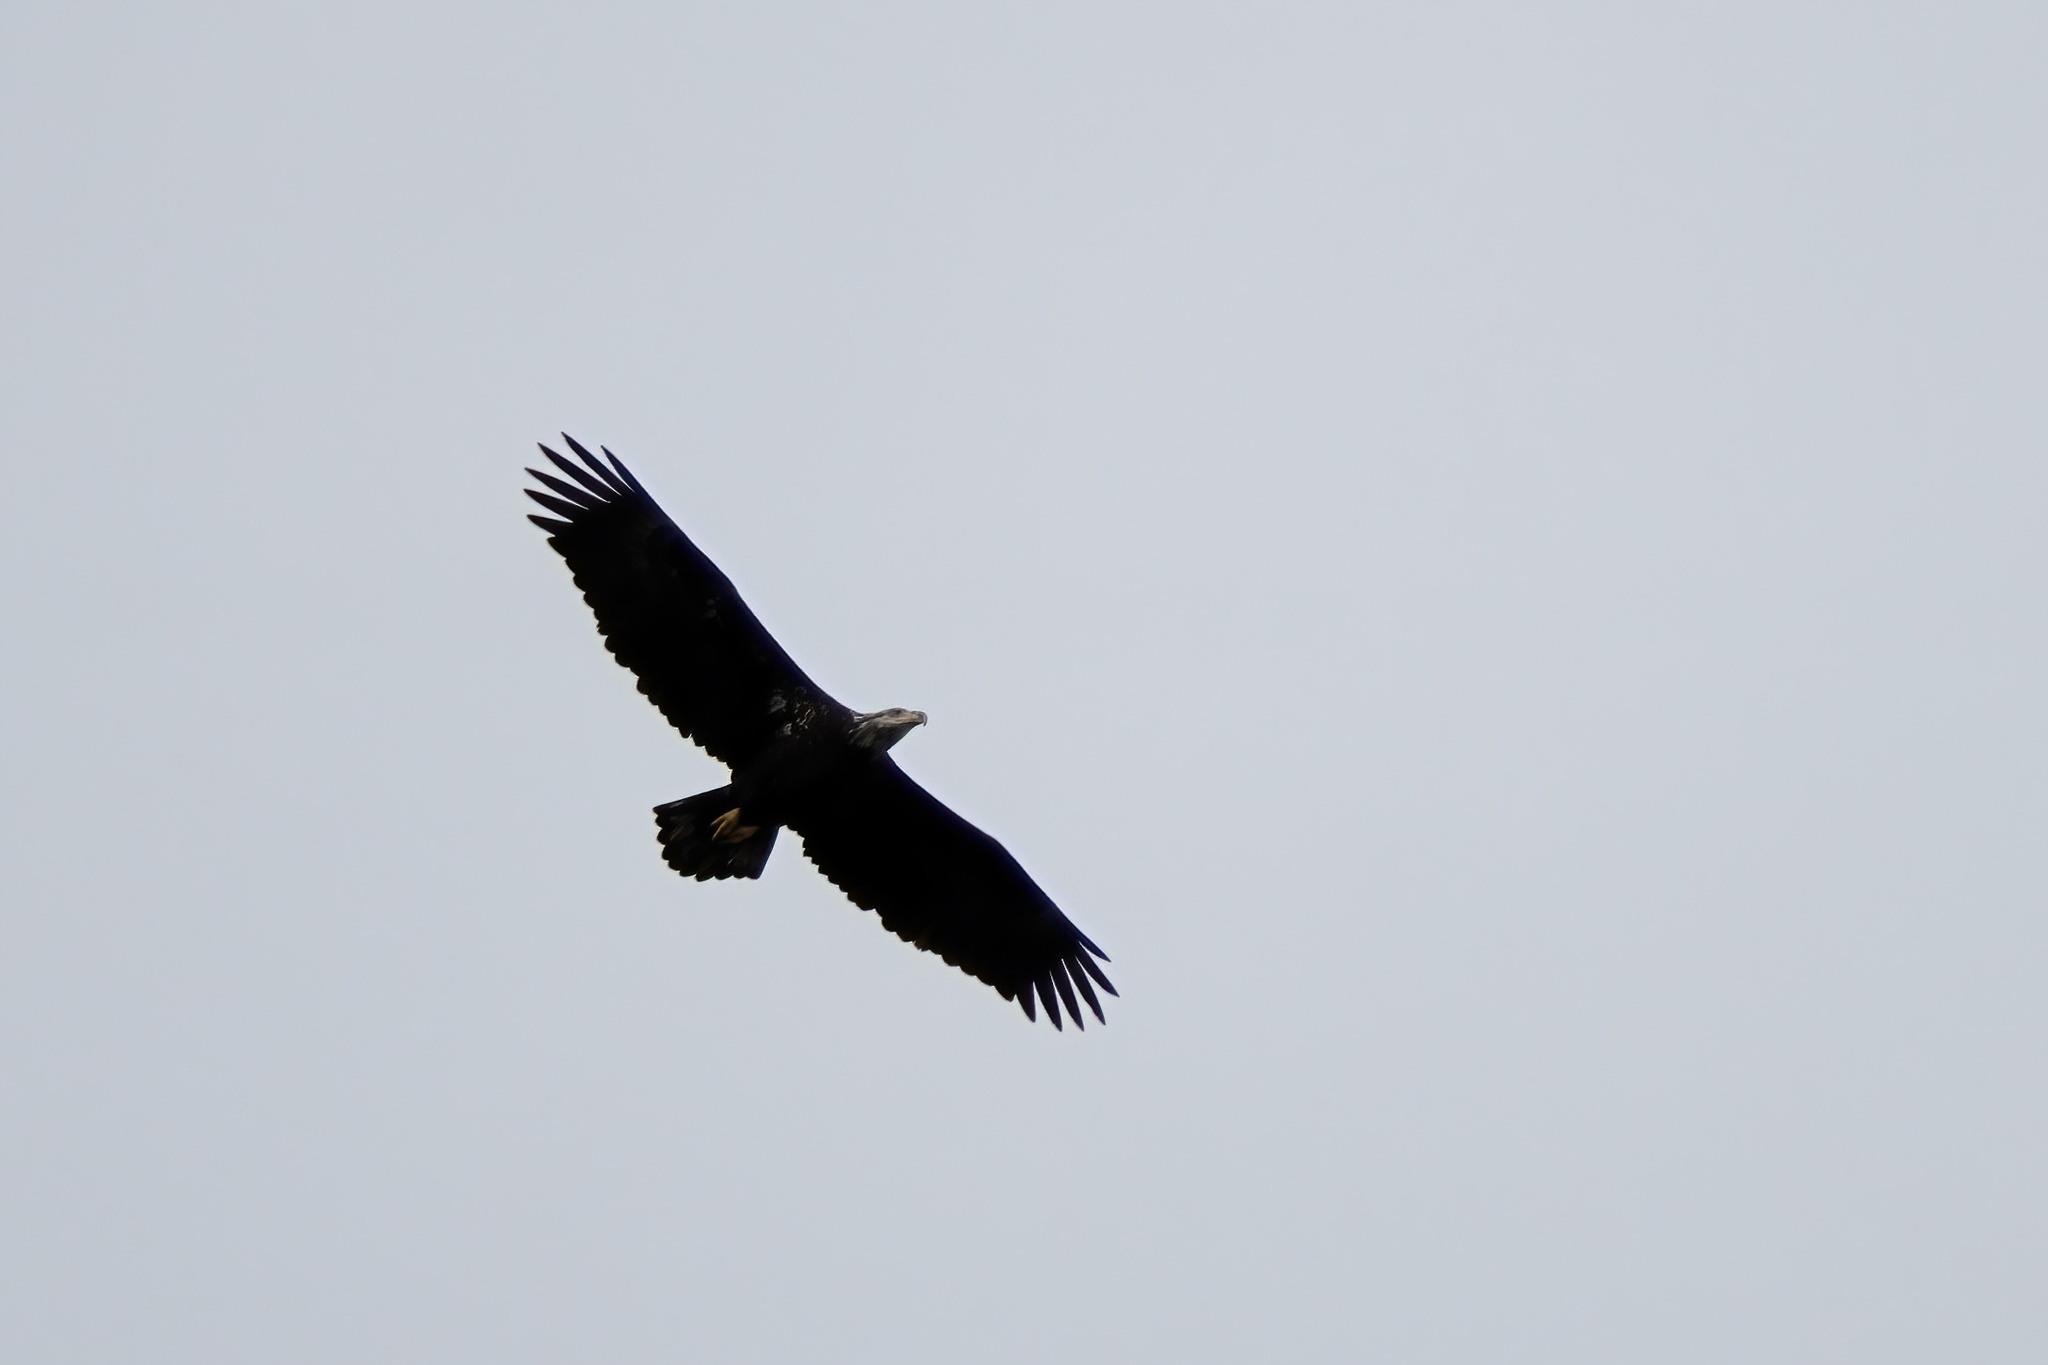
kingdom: Animalia
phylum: Chordata
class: Aves
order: Accipitriformes
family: Accipitridae
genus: Haliaeetus
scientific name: Haliaeetus leucocephalus
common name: Bald eagle
